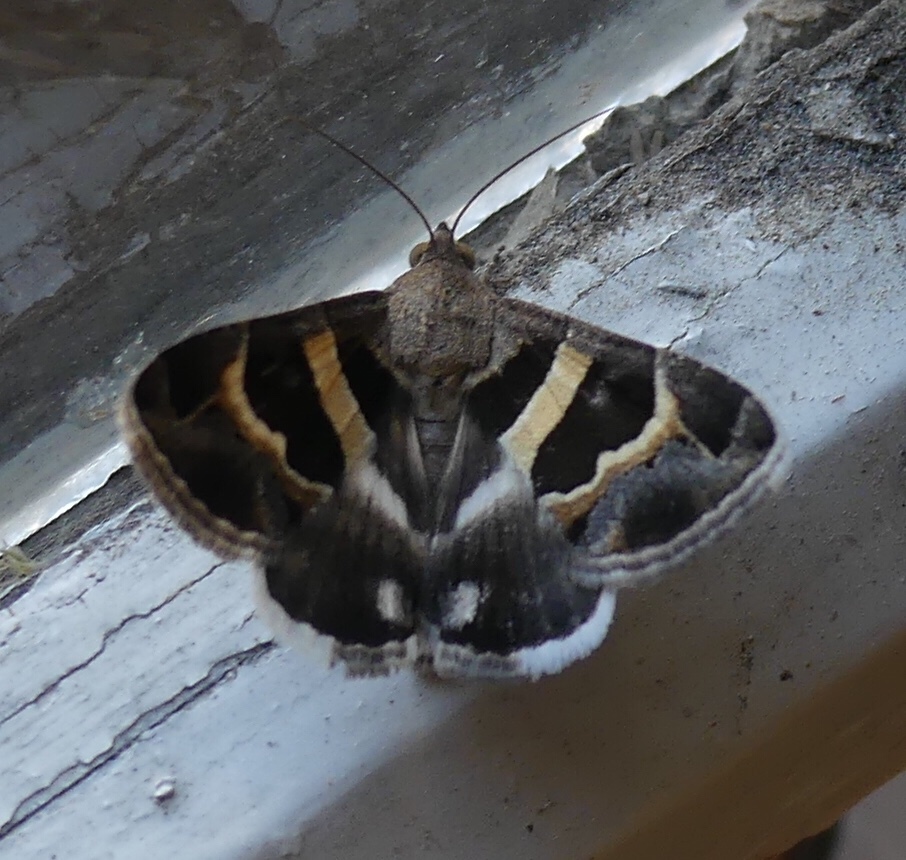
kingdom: Animalia
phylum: Arthropoda
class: Insecta
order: Lepidoptera
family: Erebidae
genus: Grammodes
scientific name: Grammodes stolida
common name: Geometrician
